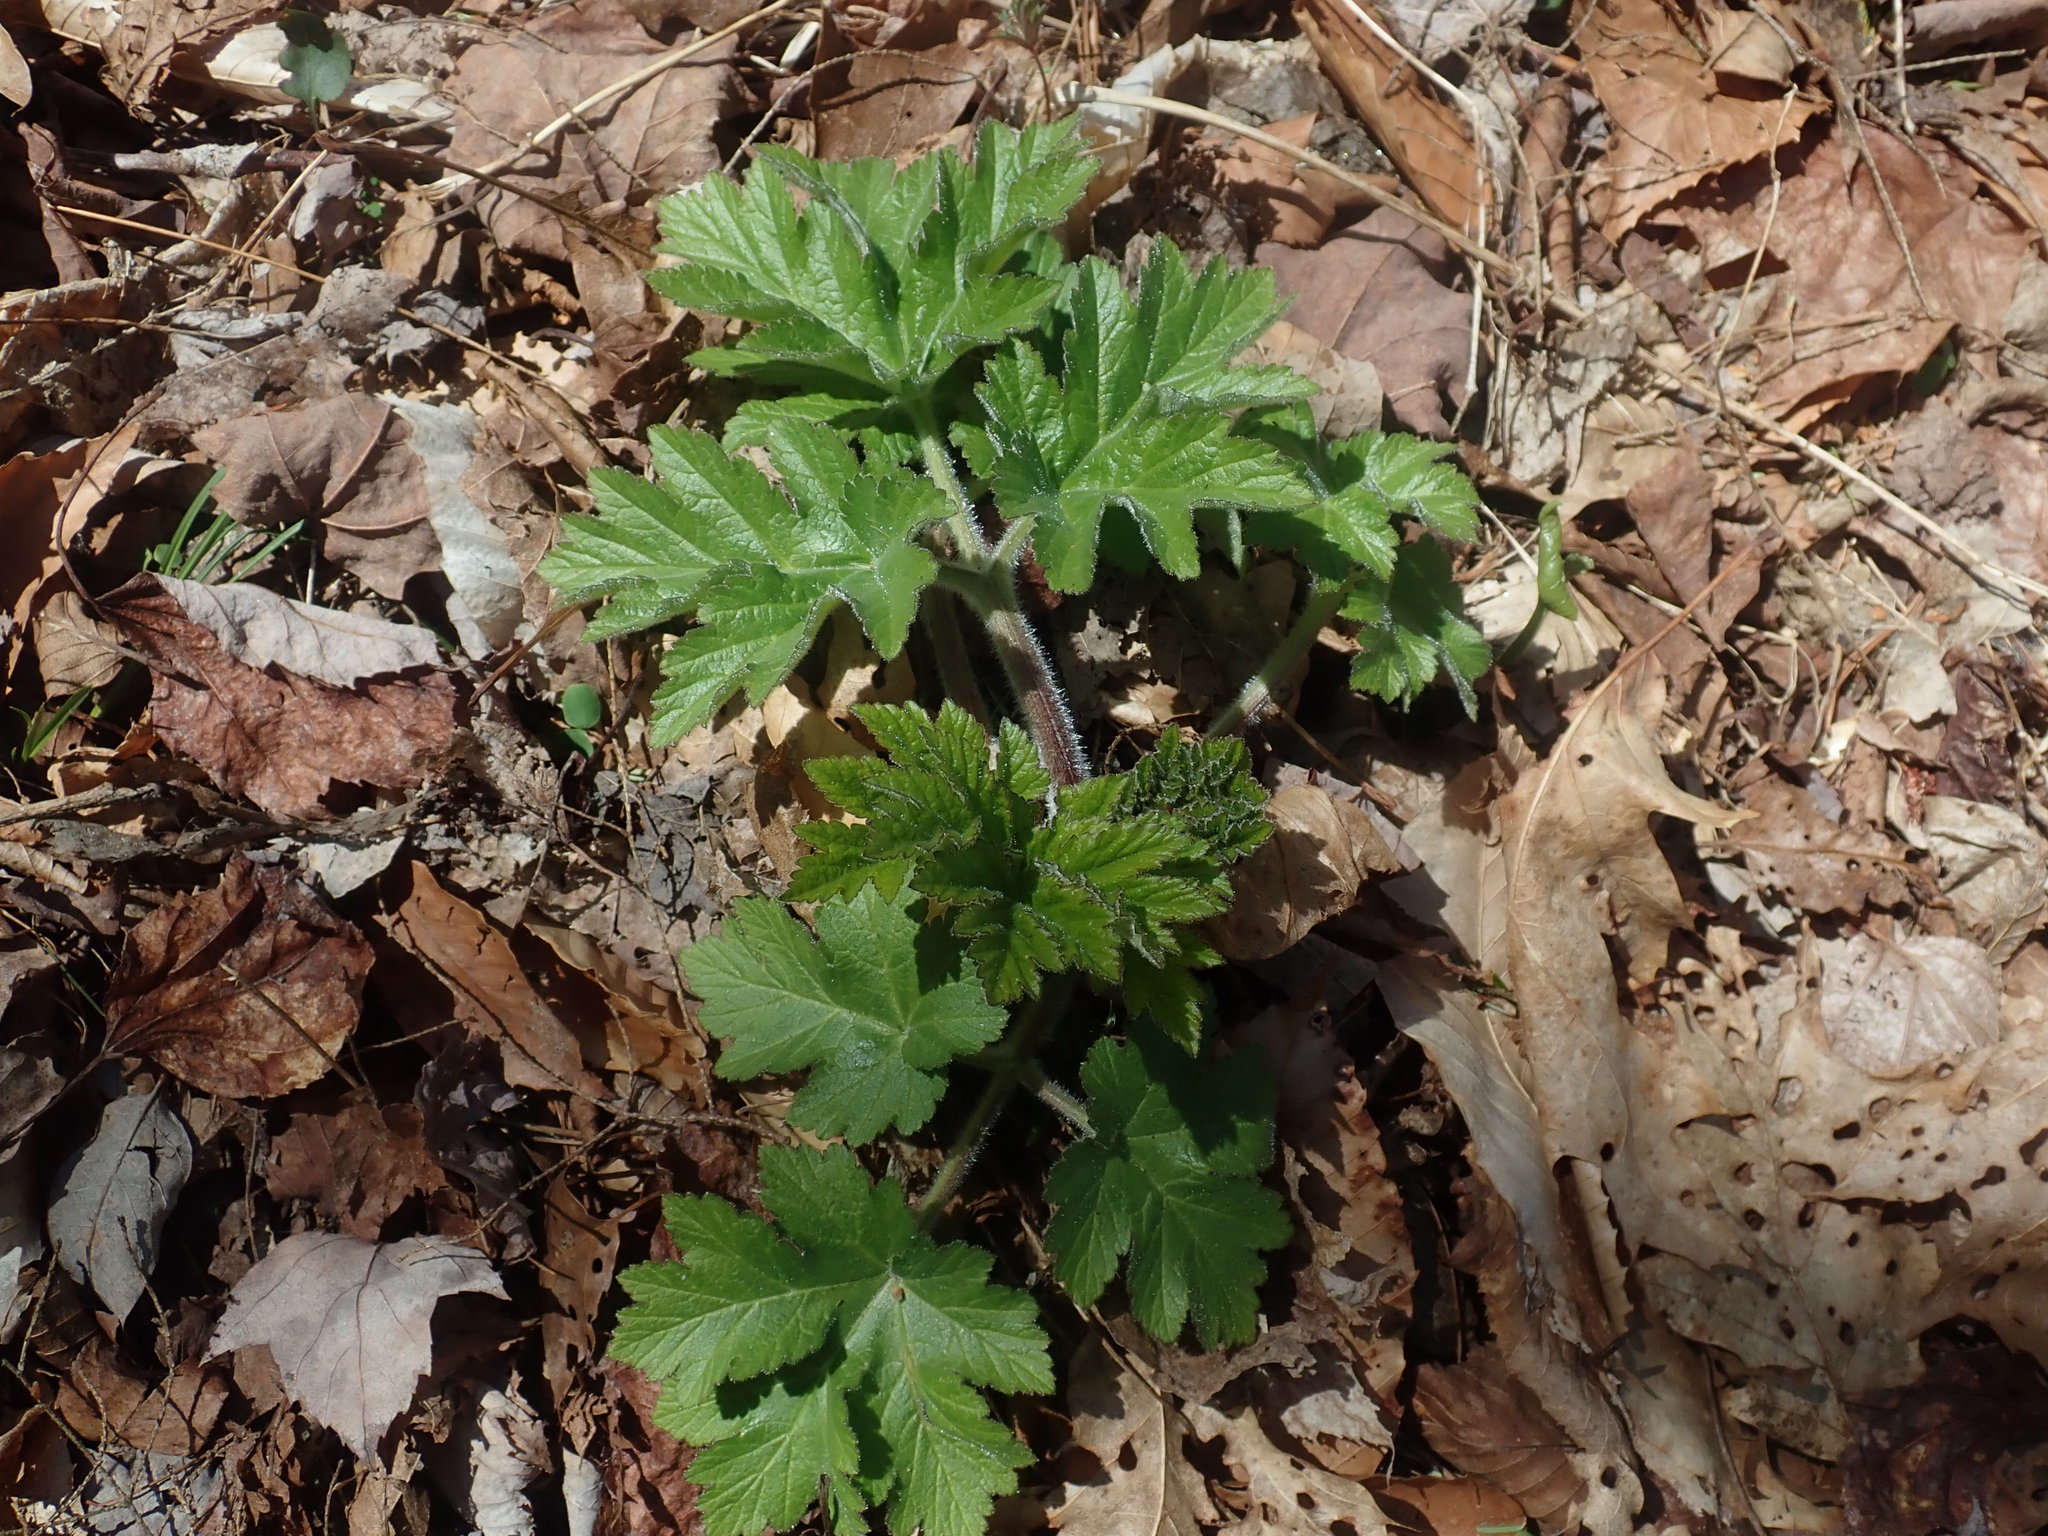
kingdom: Plantae
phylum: Tracheophyta
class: Magnoliopsida
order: Apiales
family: Apiaceae
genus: Heracleum
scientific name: Heracleum maximum
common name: American cow parsnip
